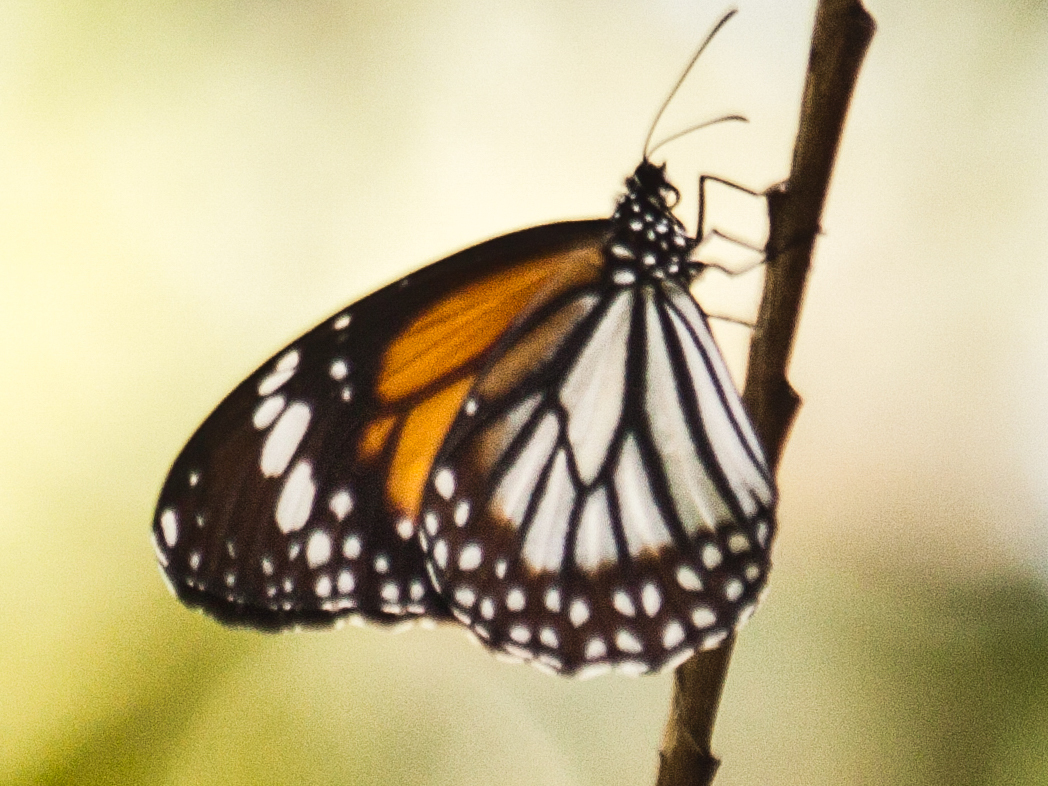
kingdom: Animalia
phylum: Arthropoda
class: Insecta
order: Lepidoptera
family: Nymphalidae
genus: Danaus
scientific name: Danaus melanippus
